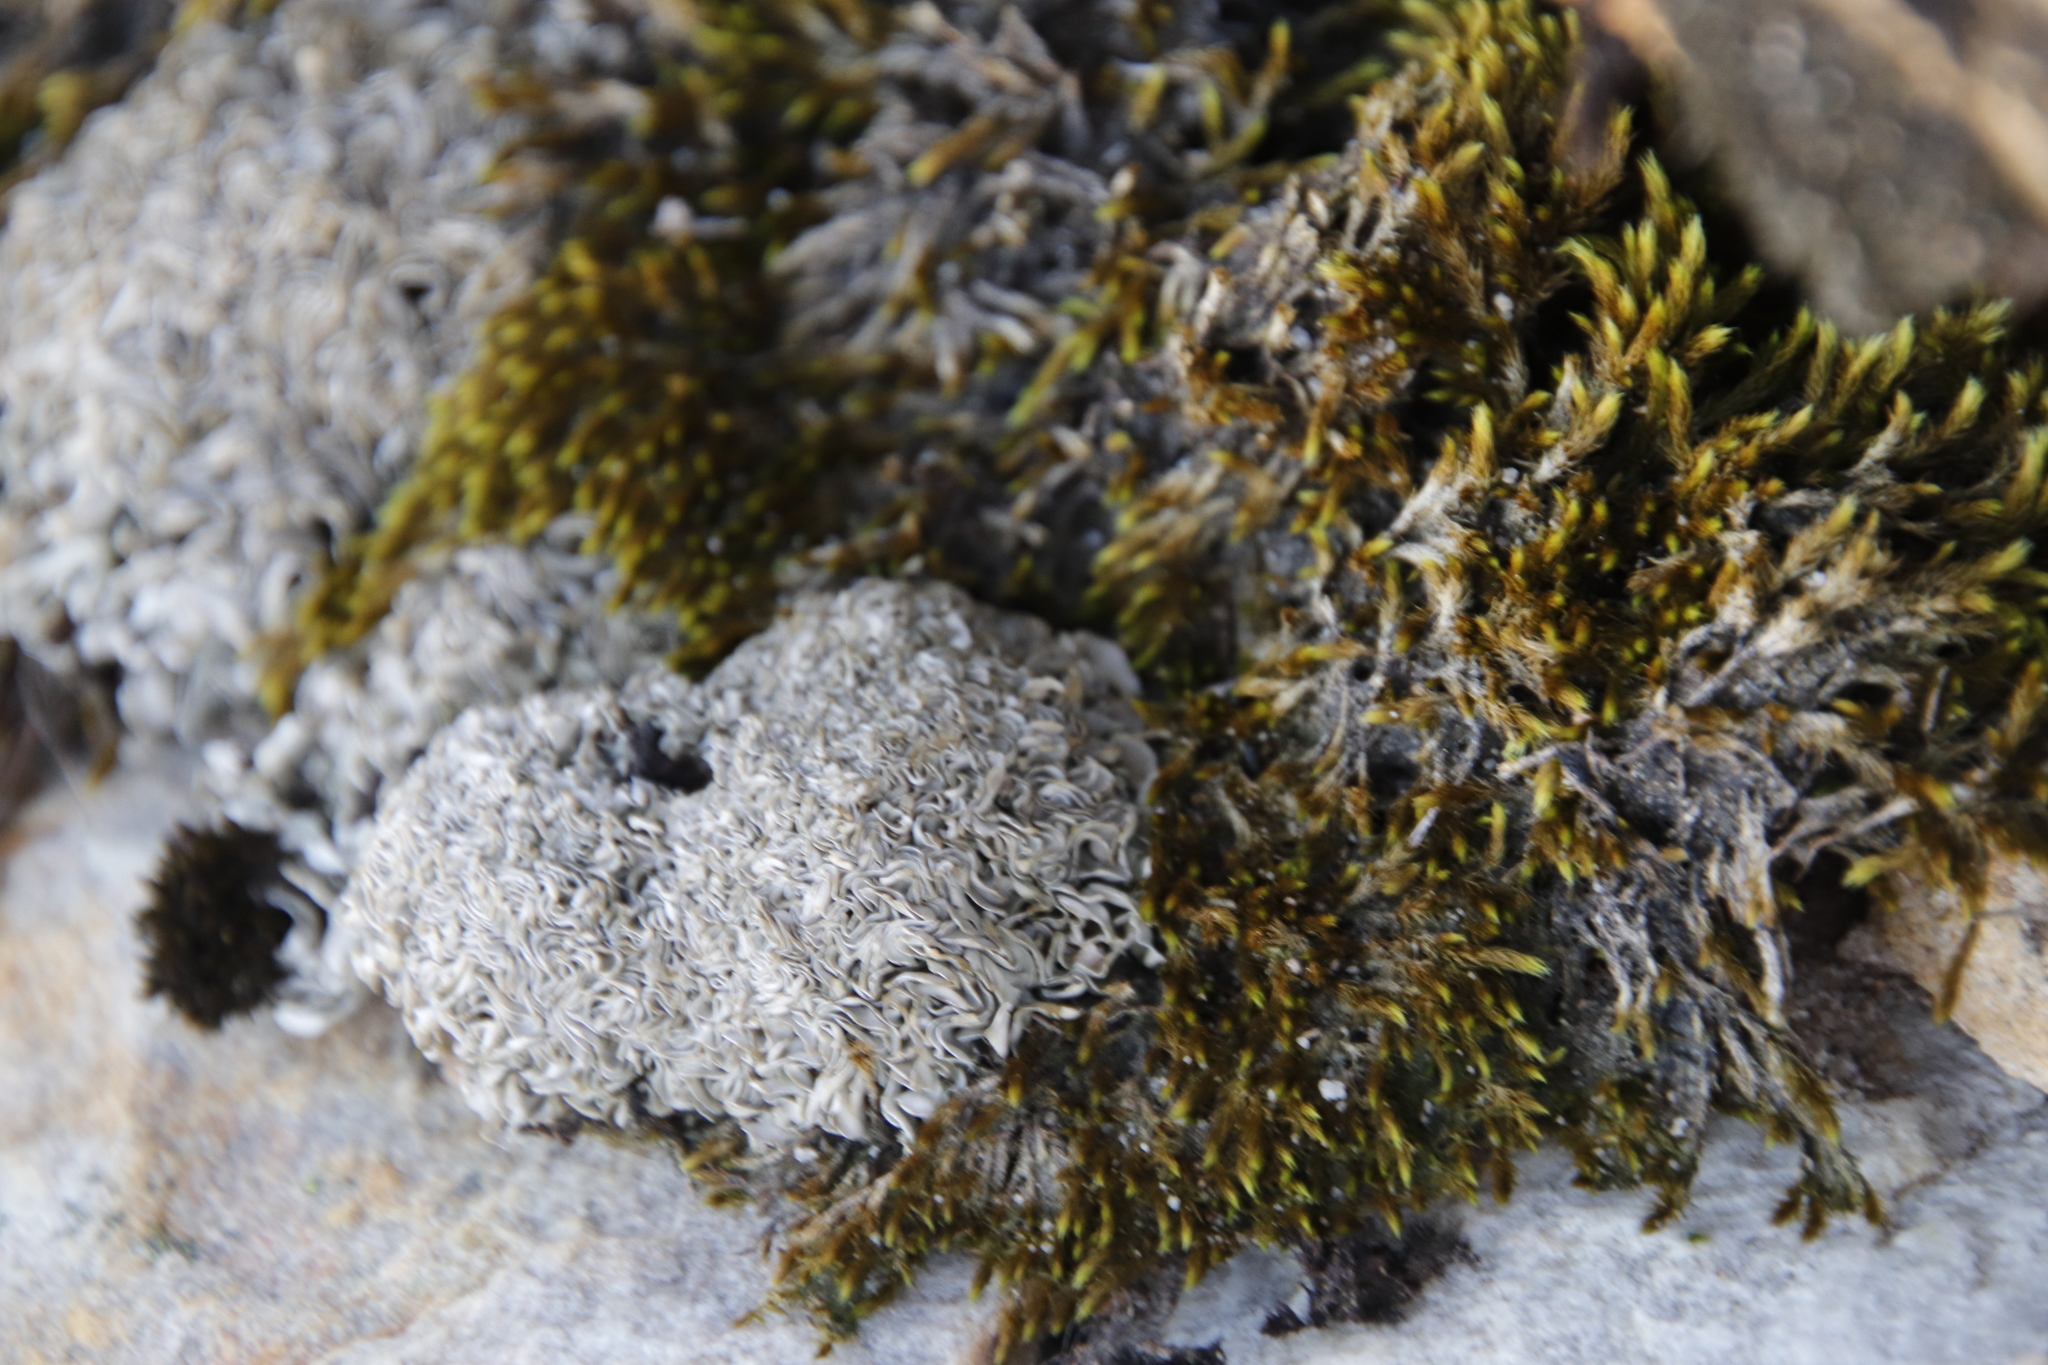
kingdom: Plantae
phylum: Bryophyta
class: Bryopsida
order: Bartramiales
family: Bartramiaceae
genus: Breutelia
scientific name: Breutelia substricta
